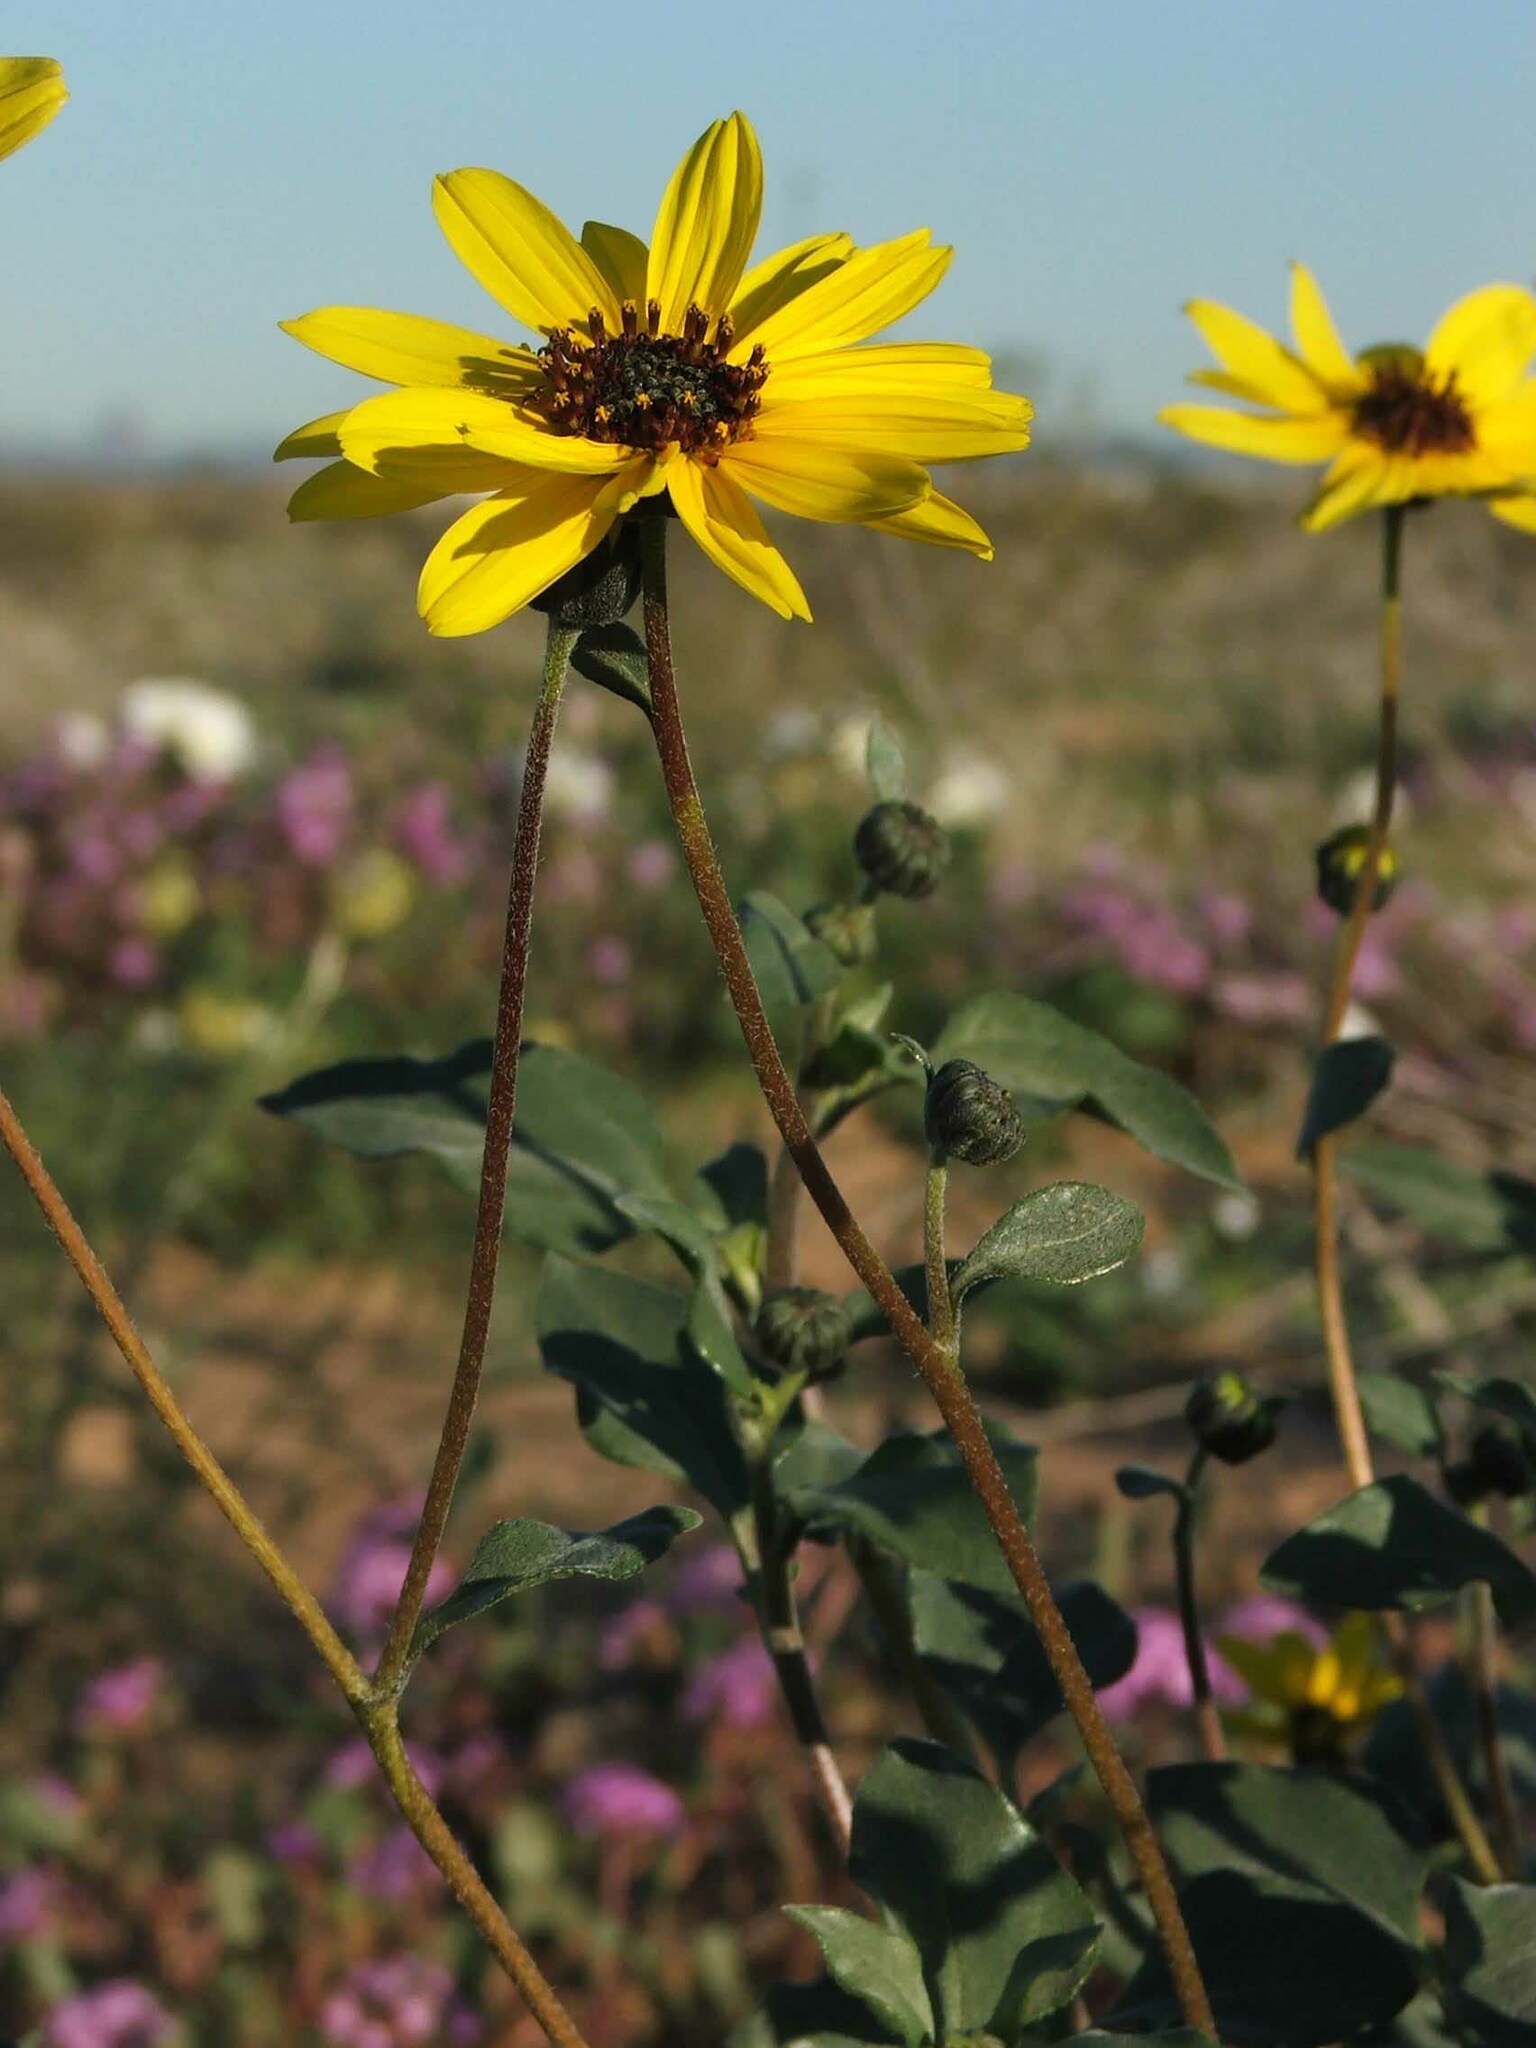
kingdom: Plantae
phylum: Tracheophyta
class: Magnoliopsida
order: Asterales
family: Asteraceae
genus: Helianthus
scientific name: Helianthus petiolaris
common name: Lesser sunflower
